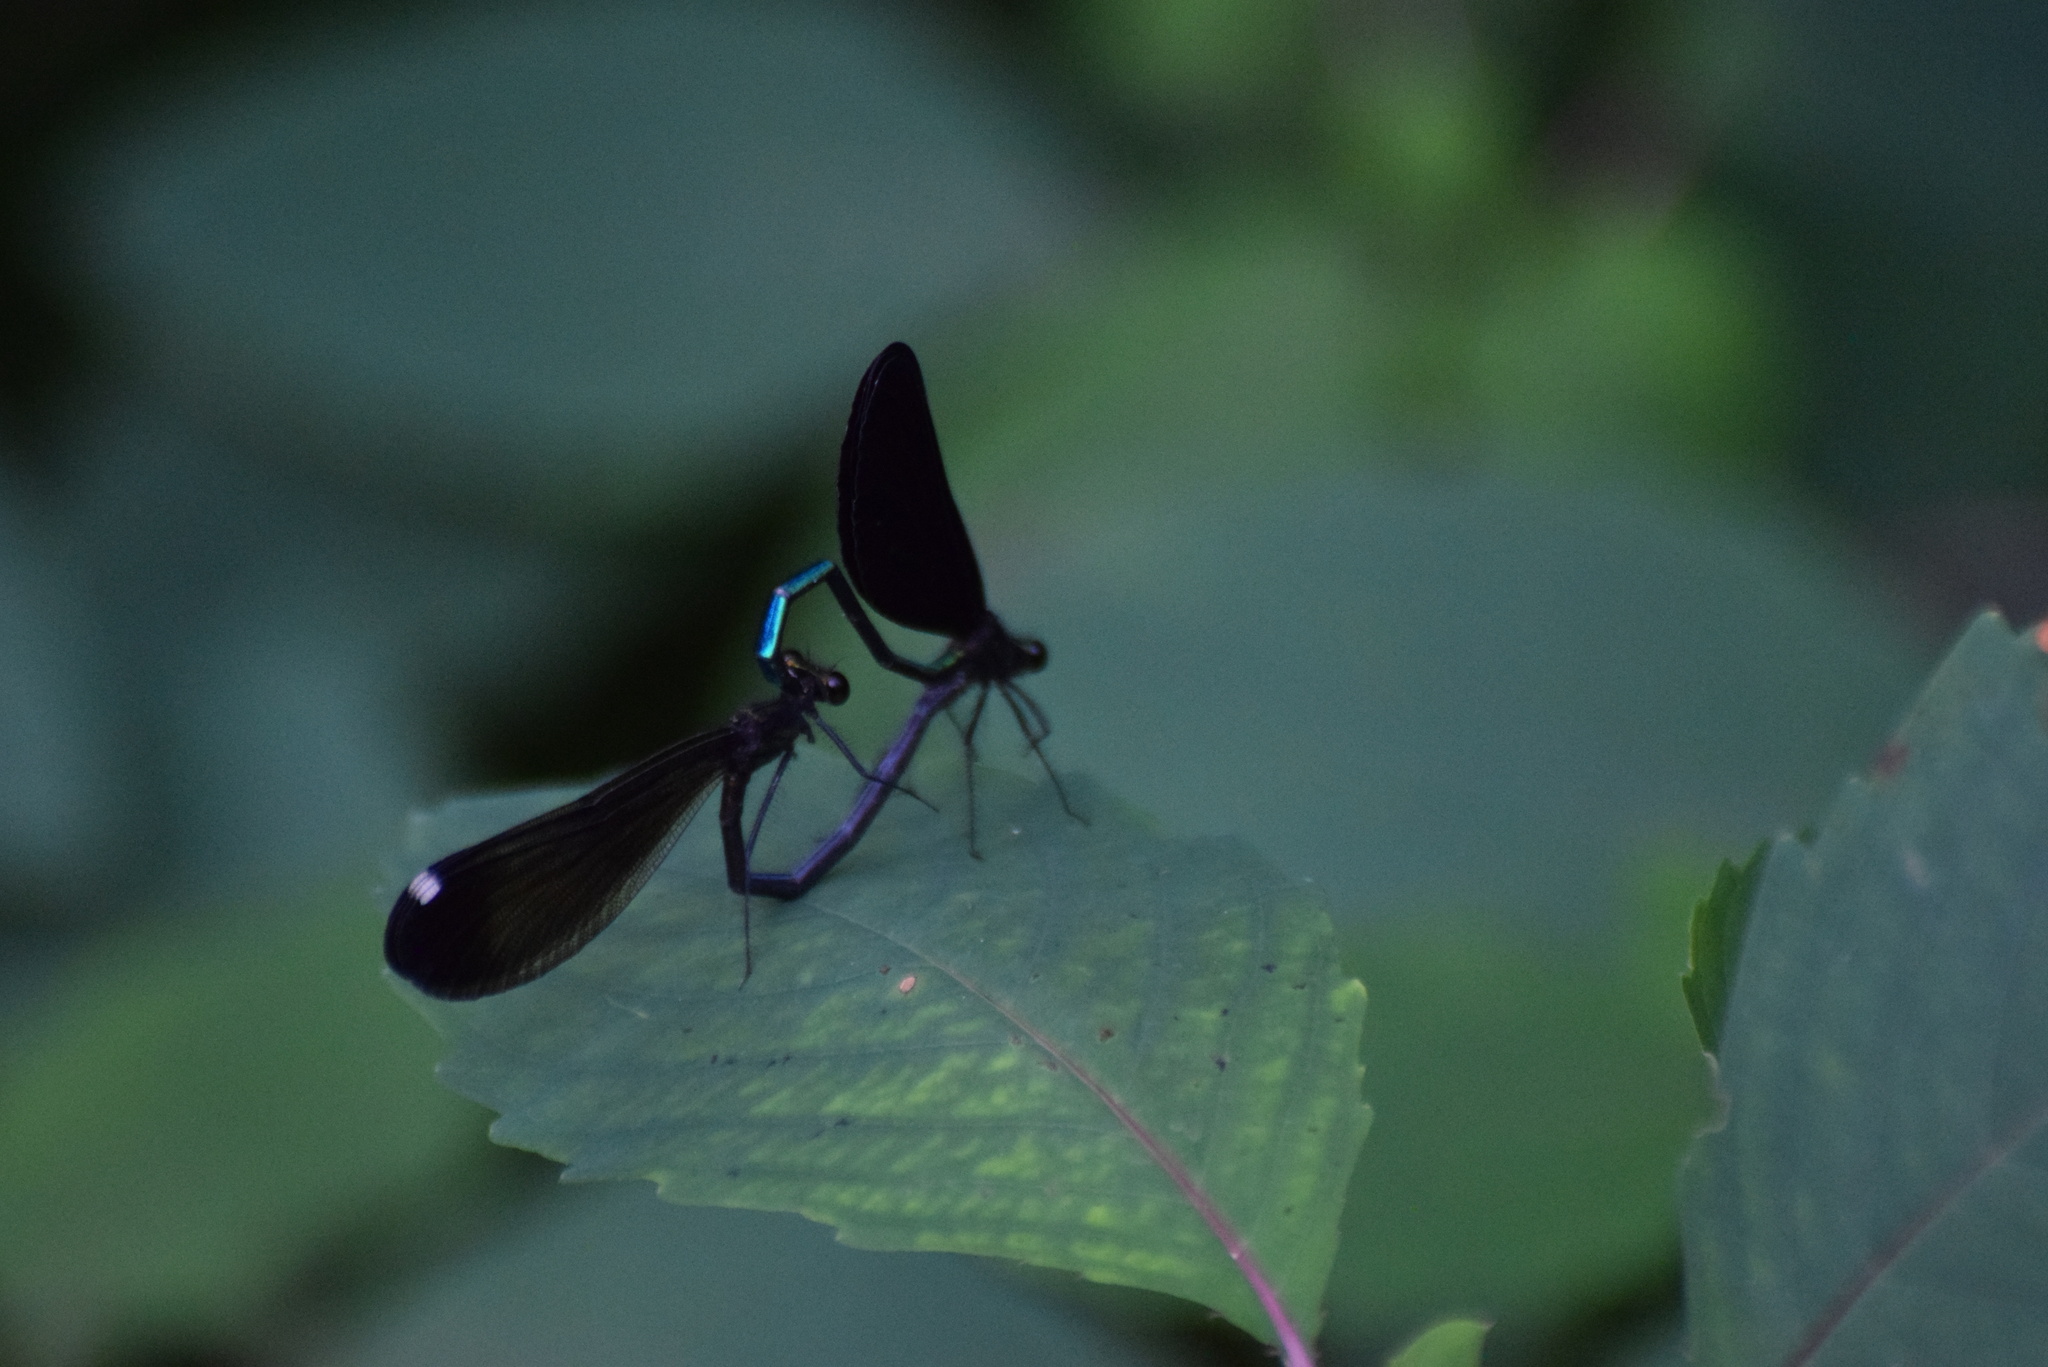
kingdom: Animalia
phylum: Arthropoda
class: Insecta
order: Odonata
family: Calopterygidae
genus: Calopteryx
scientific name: Calopteryx maculata
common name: Ebony jewelwing
